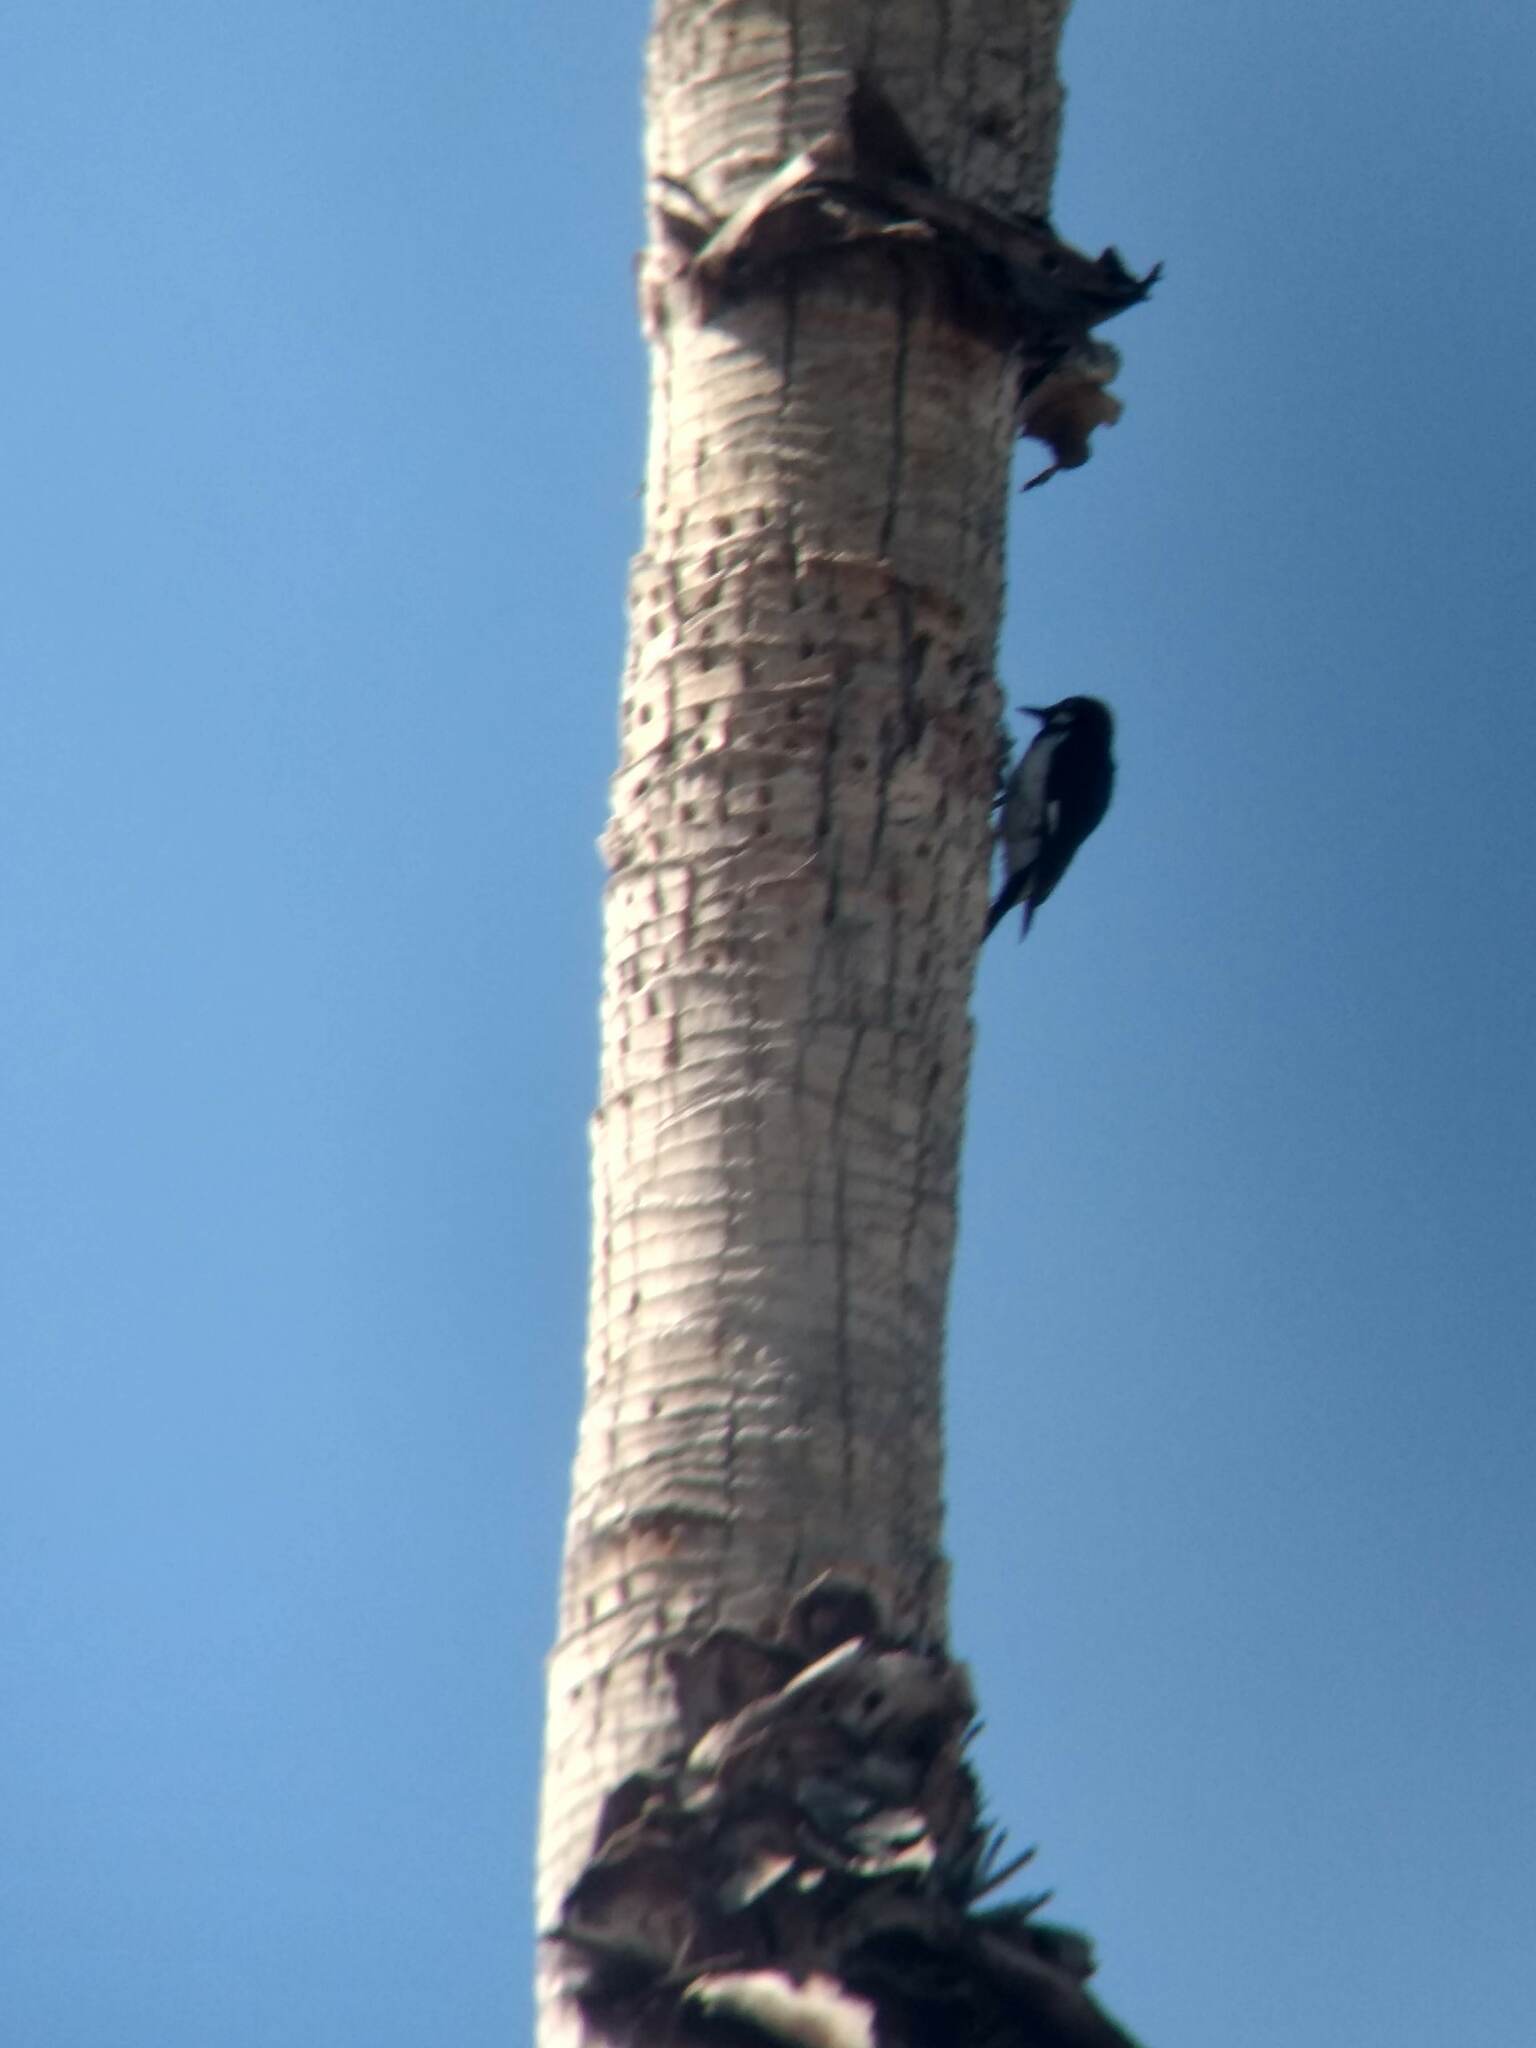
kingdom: Animalia
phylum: Chordata
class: Aves
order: Piciformes
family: Picidae
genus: Melanerpes
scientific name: Melanerpes formicivorus
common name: Acorn woodpecker
